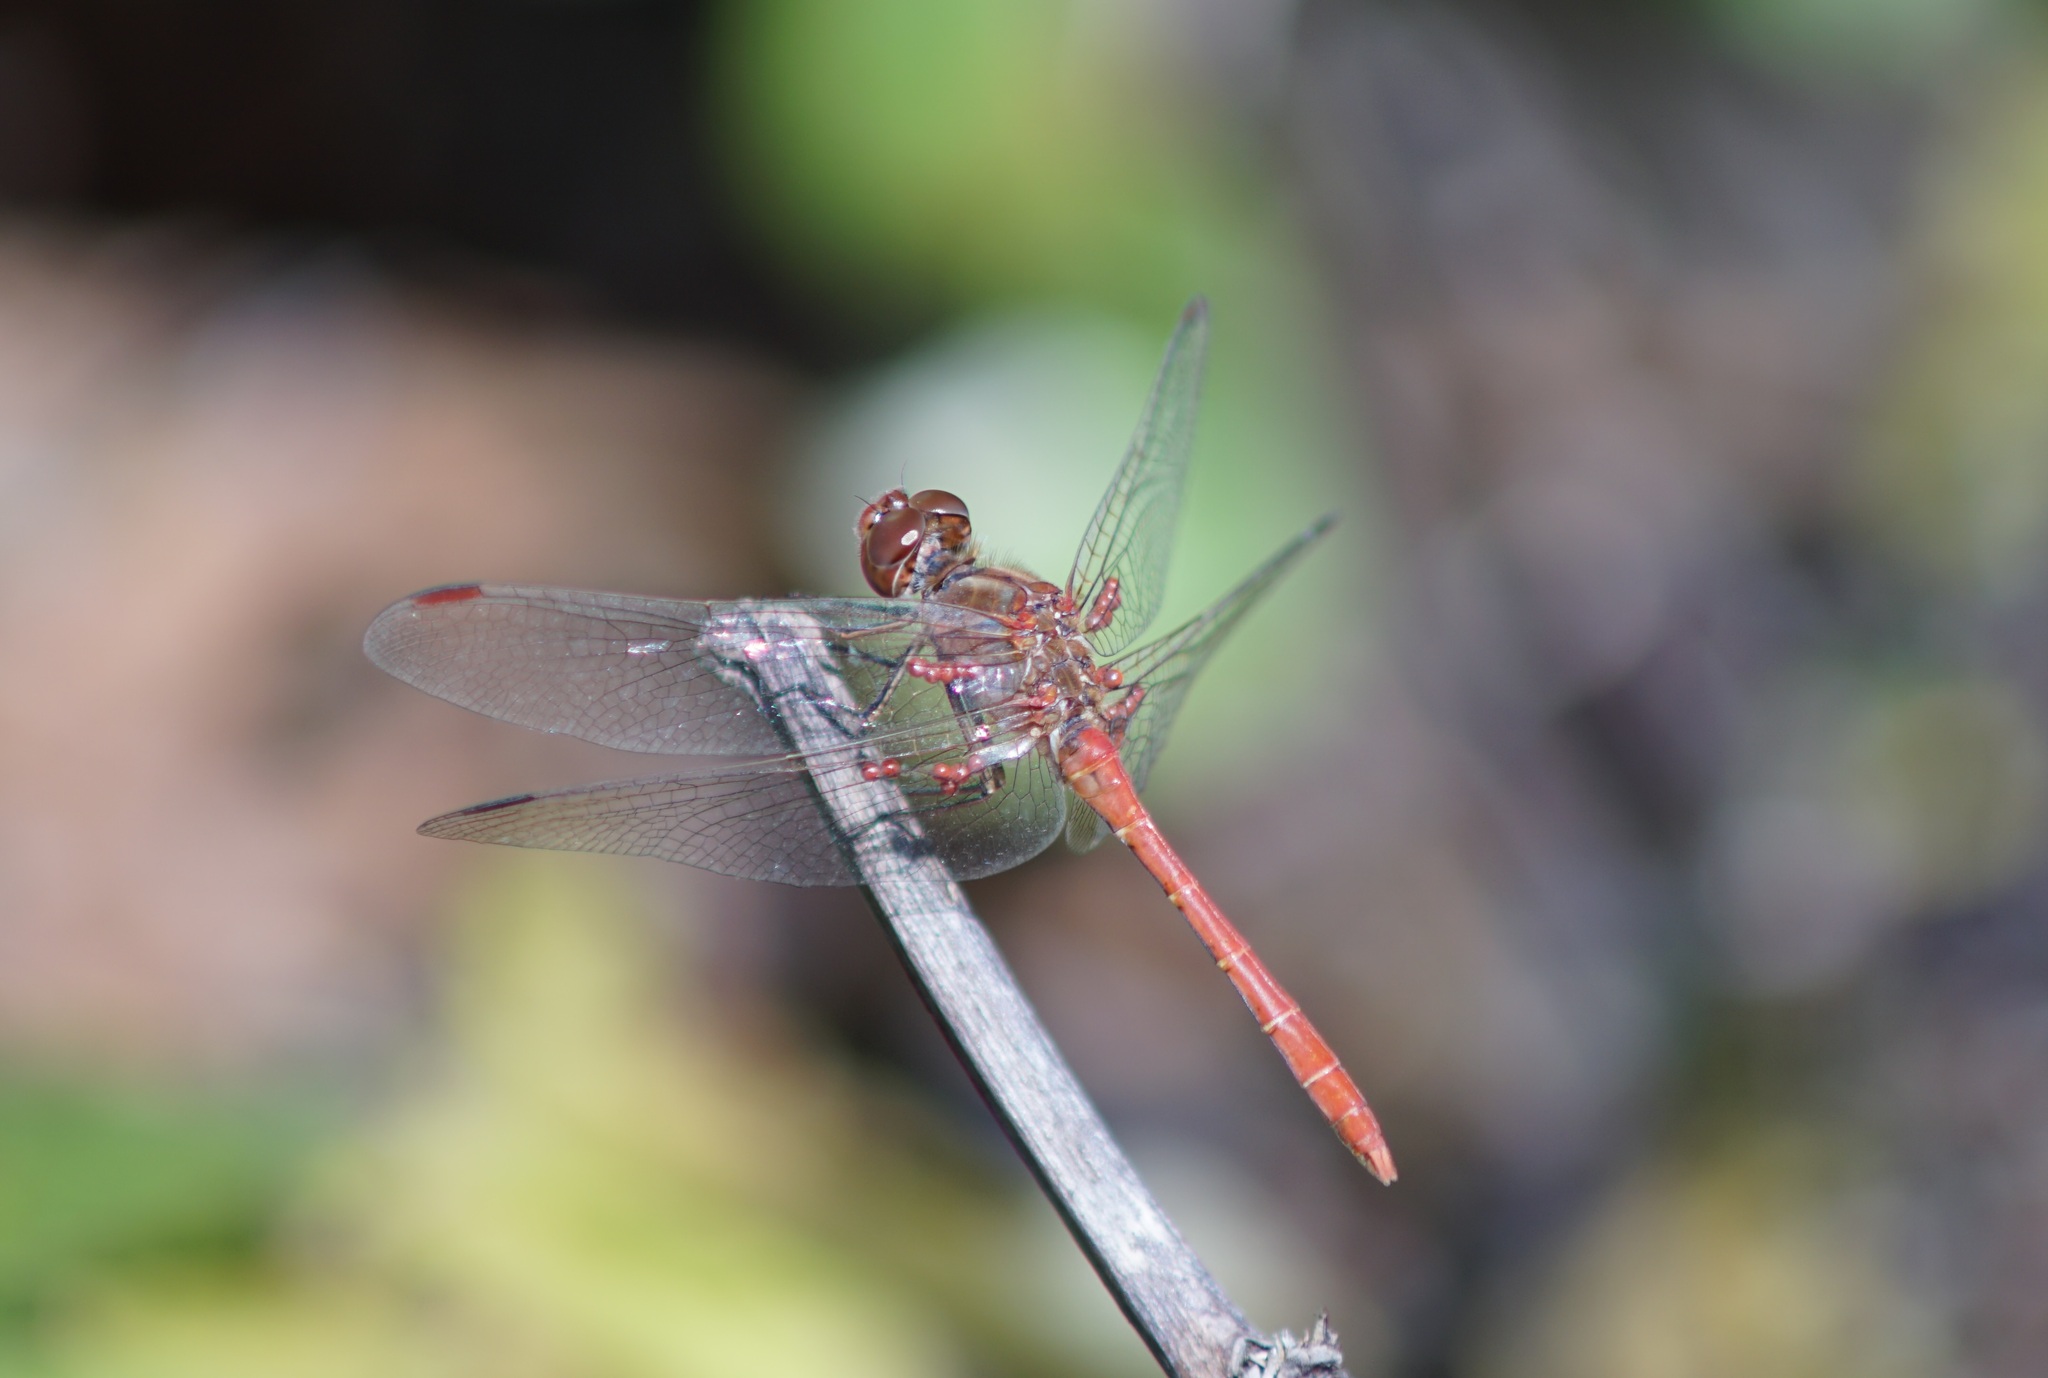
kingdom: Animalia
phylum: Arthropoda
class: Insecta
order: Odonata
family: Libellulidae
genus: Sympetrum
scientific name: Sympetrum meridionale
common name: Southern darter
